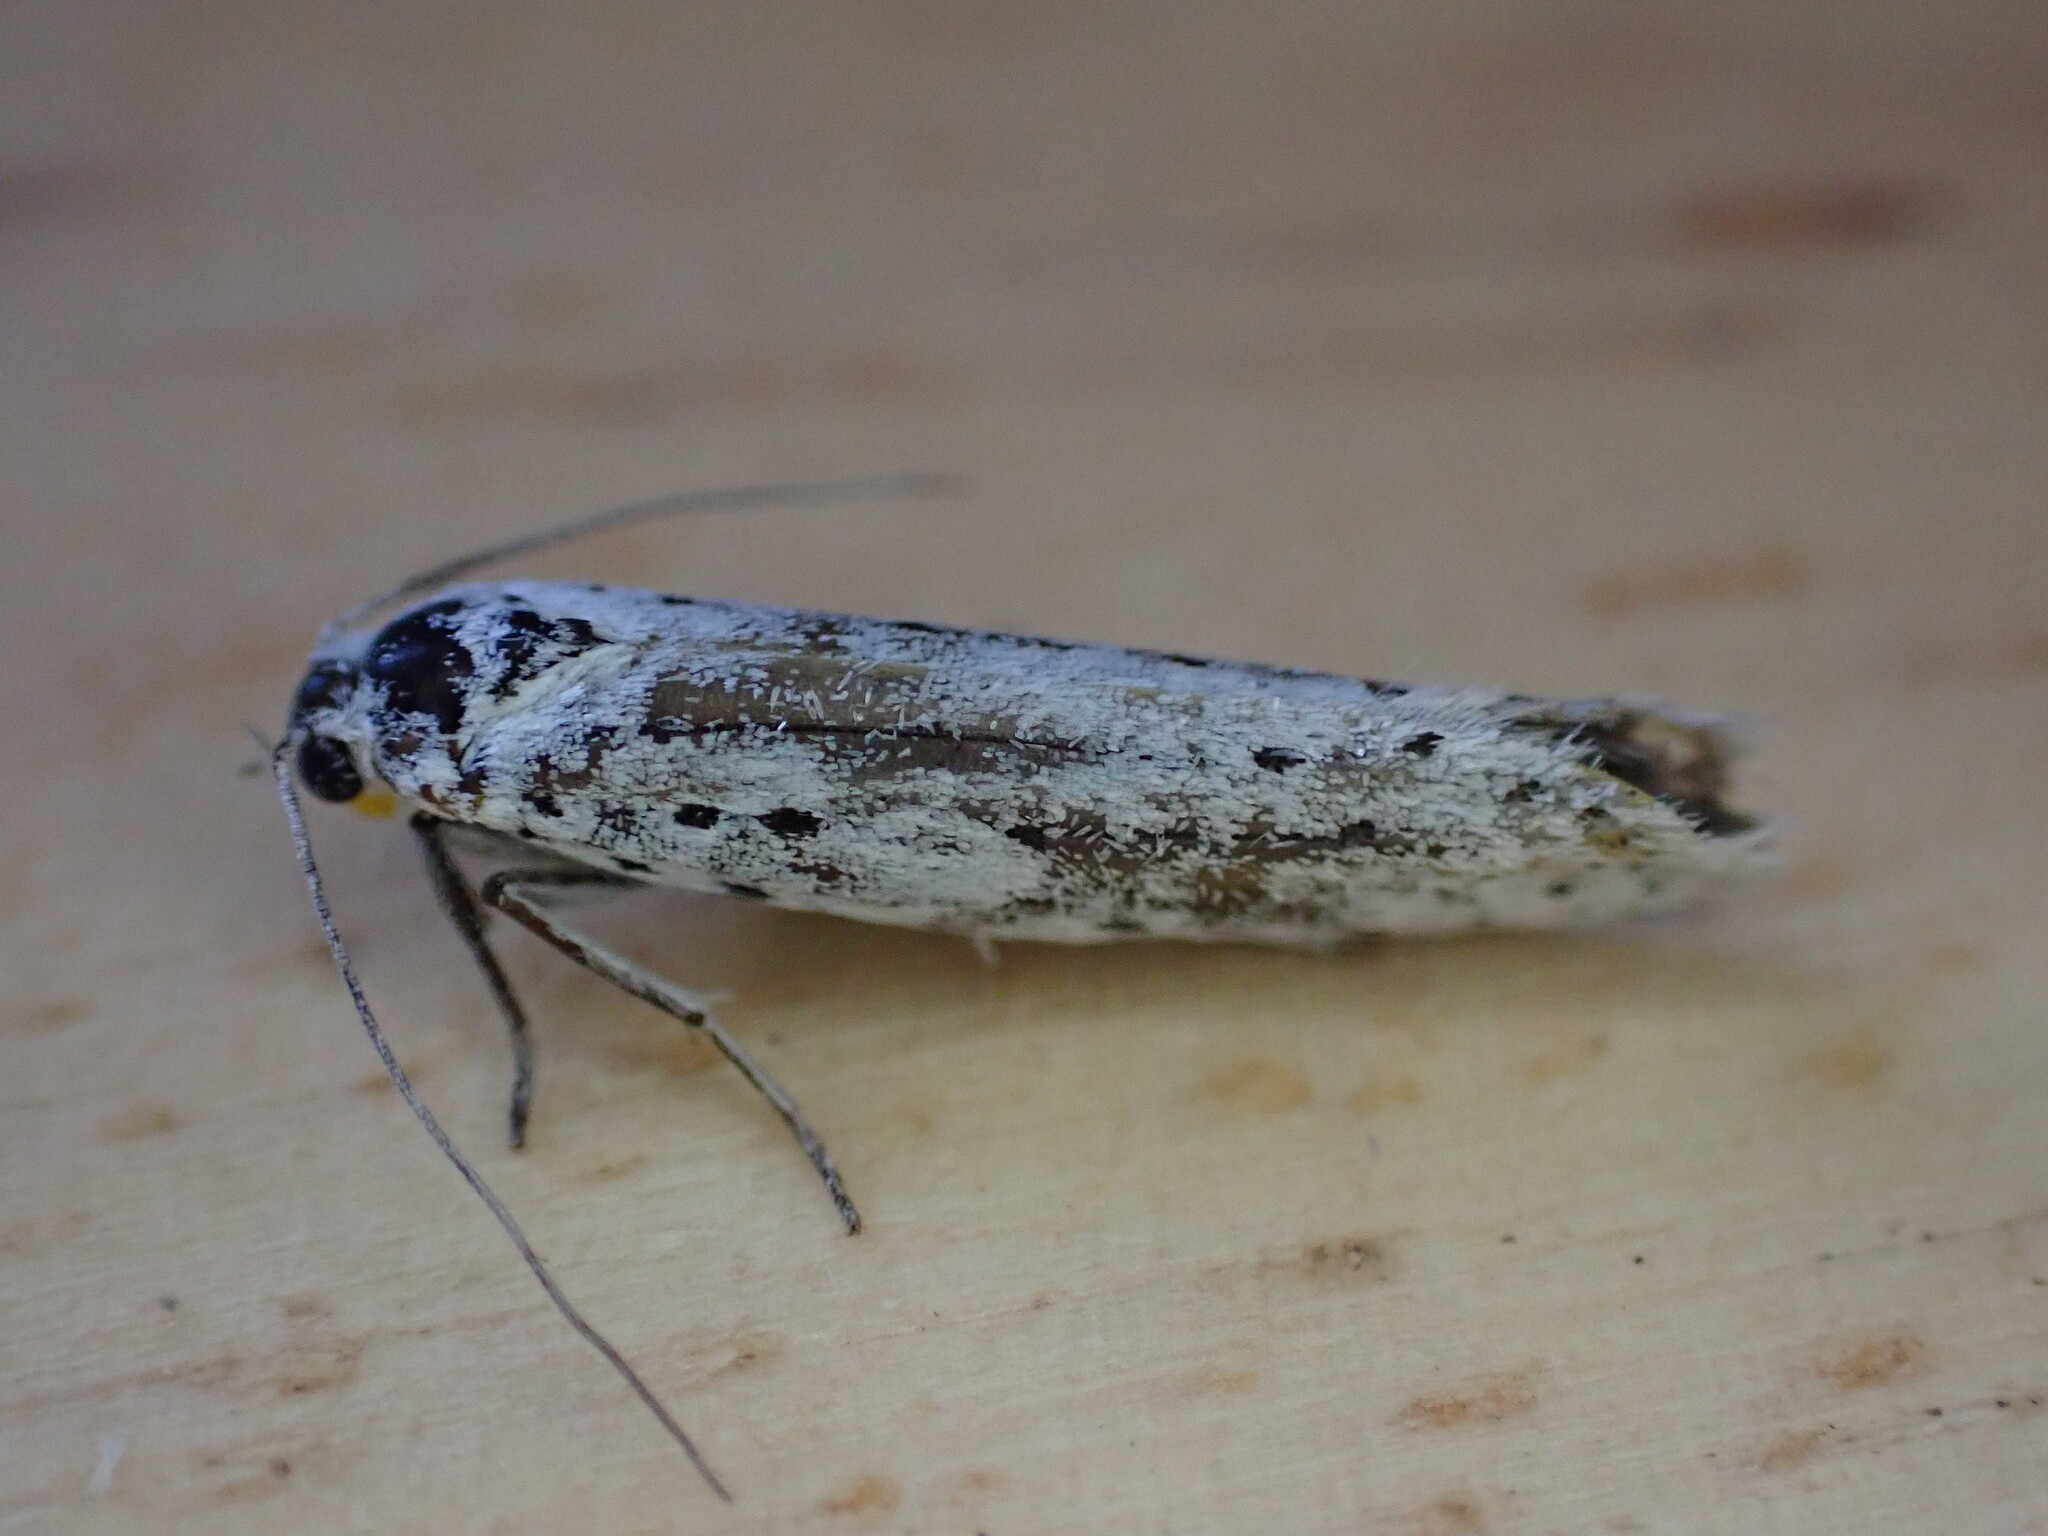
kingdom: Animalia
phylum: Arthropoda
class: Insecta
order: Lepidoptera
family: Yponomeutidae
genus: Yponomeuta
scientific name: Yponomeuta
